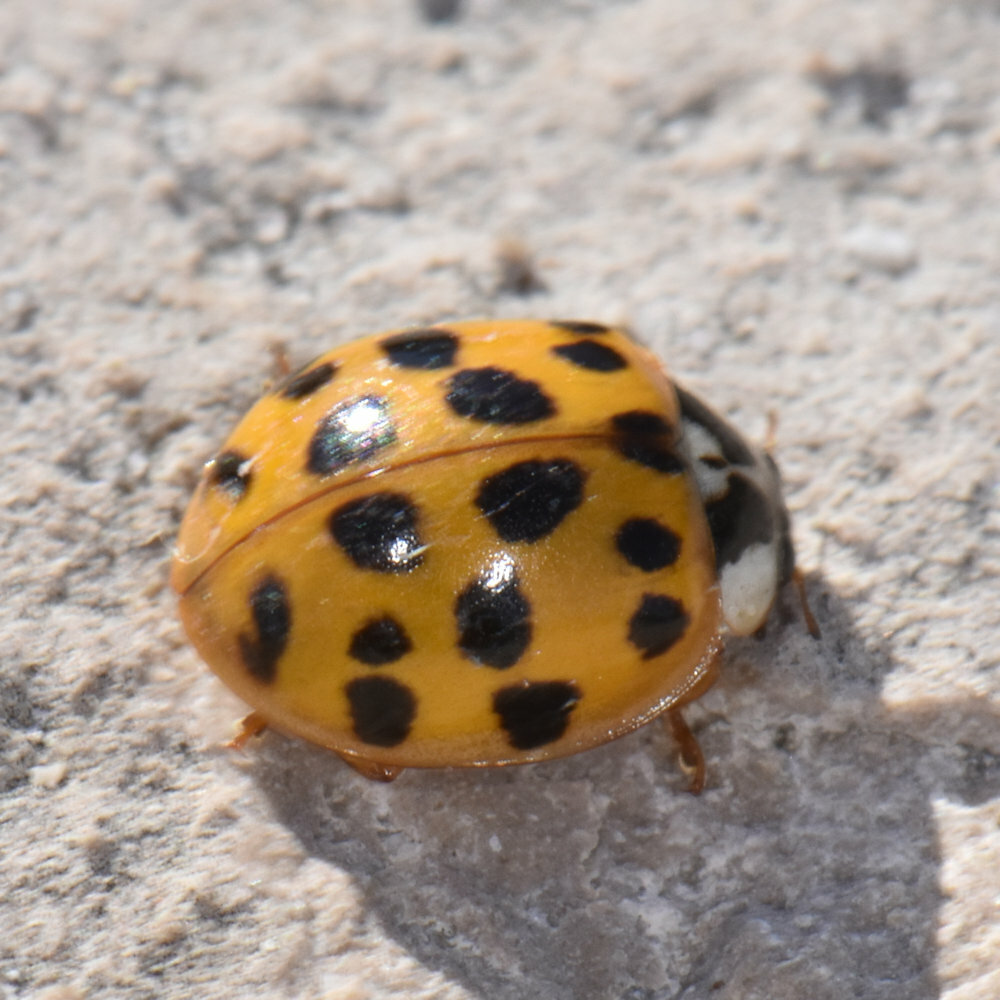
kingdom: Animalia
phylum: Arthropoda
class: Insecta
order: Coleoptera
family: Coccinellidae
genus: Harmonia
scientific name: Harmonia axyridis
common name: Harlequin ladybird
